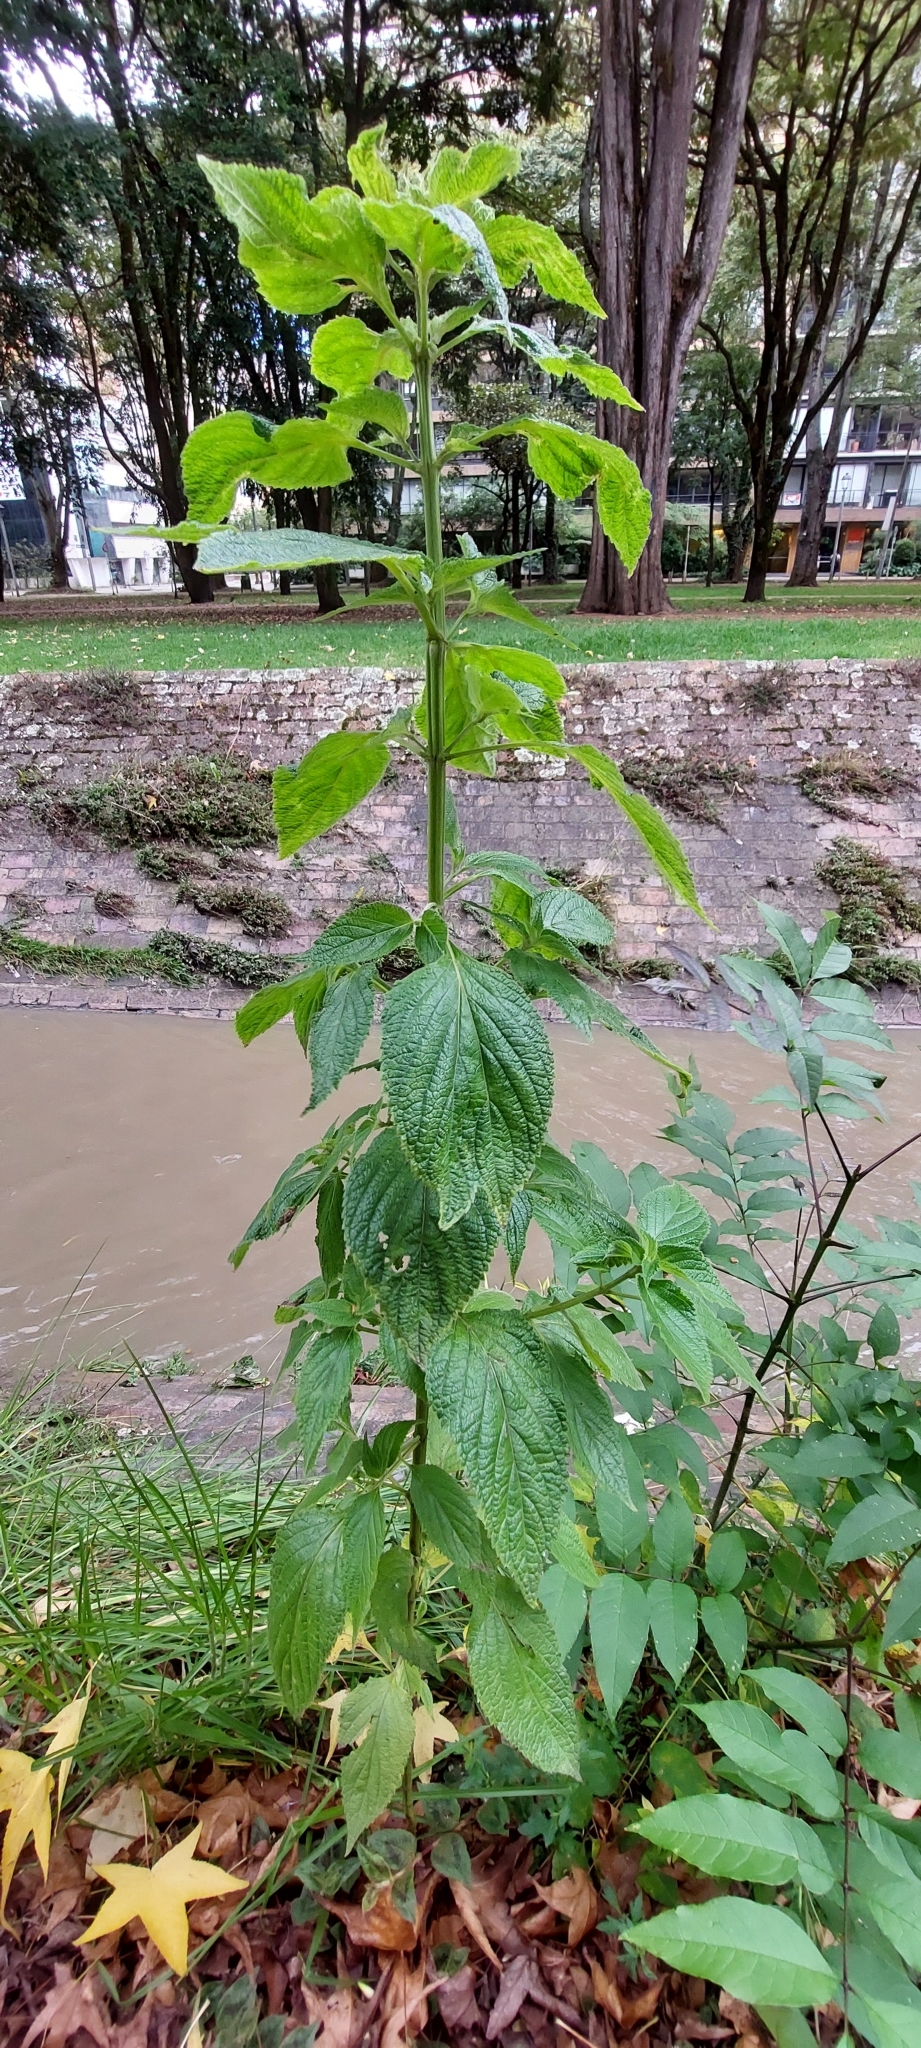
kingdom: Plantae
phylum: Tracheophyta
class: Magnoliopsida
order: Lamiales
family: Lamiaceae
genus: Salvia
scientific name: Salvia hispanica
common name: Chia
